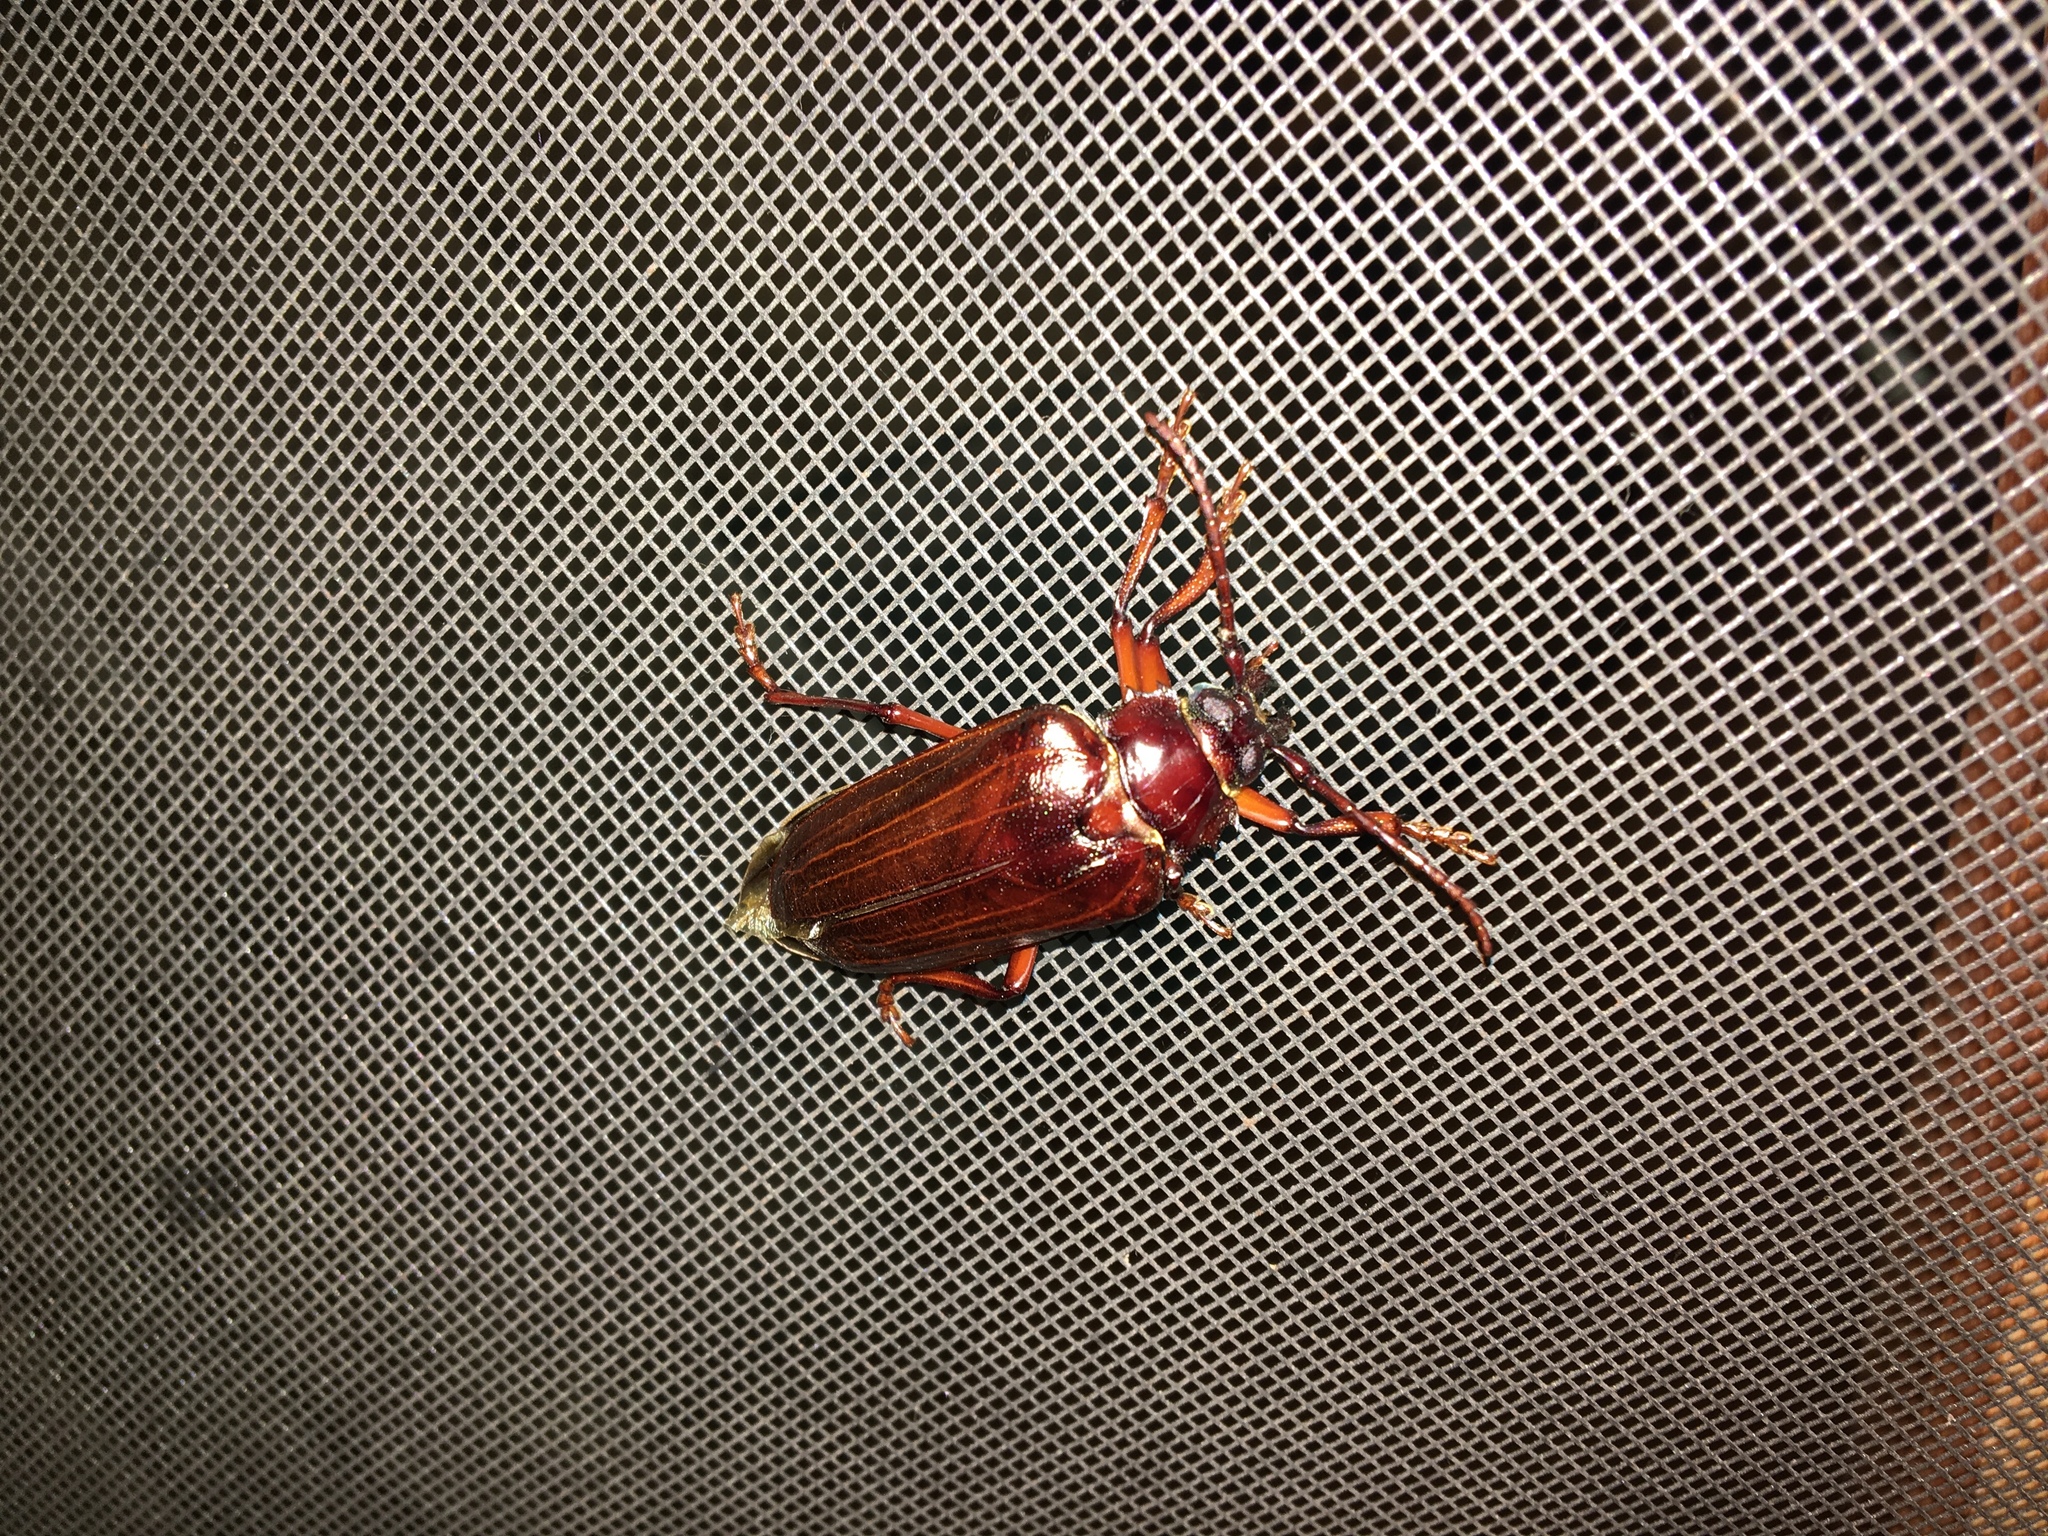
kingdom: Animalia
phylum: Arthropoda
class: Insecta
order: Coleoptera
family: Cerambycidae
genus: Prionus
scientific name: Prionus pocularis
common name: Tooth-necked longhorn beetle
